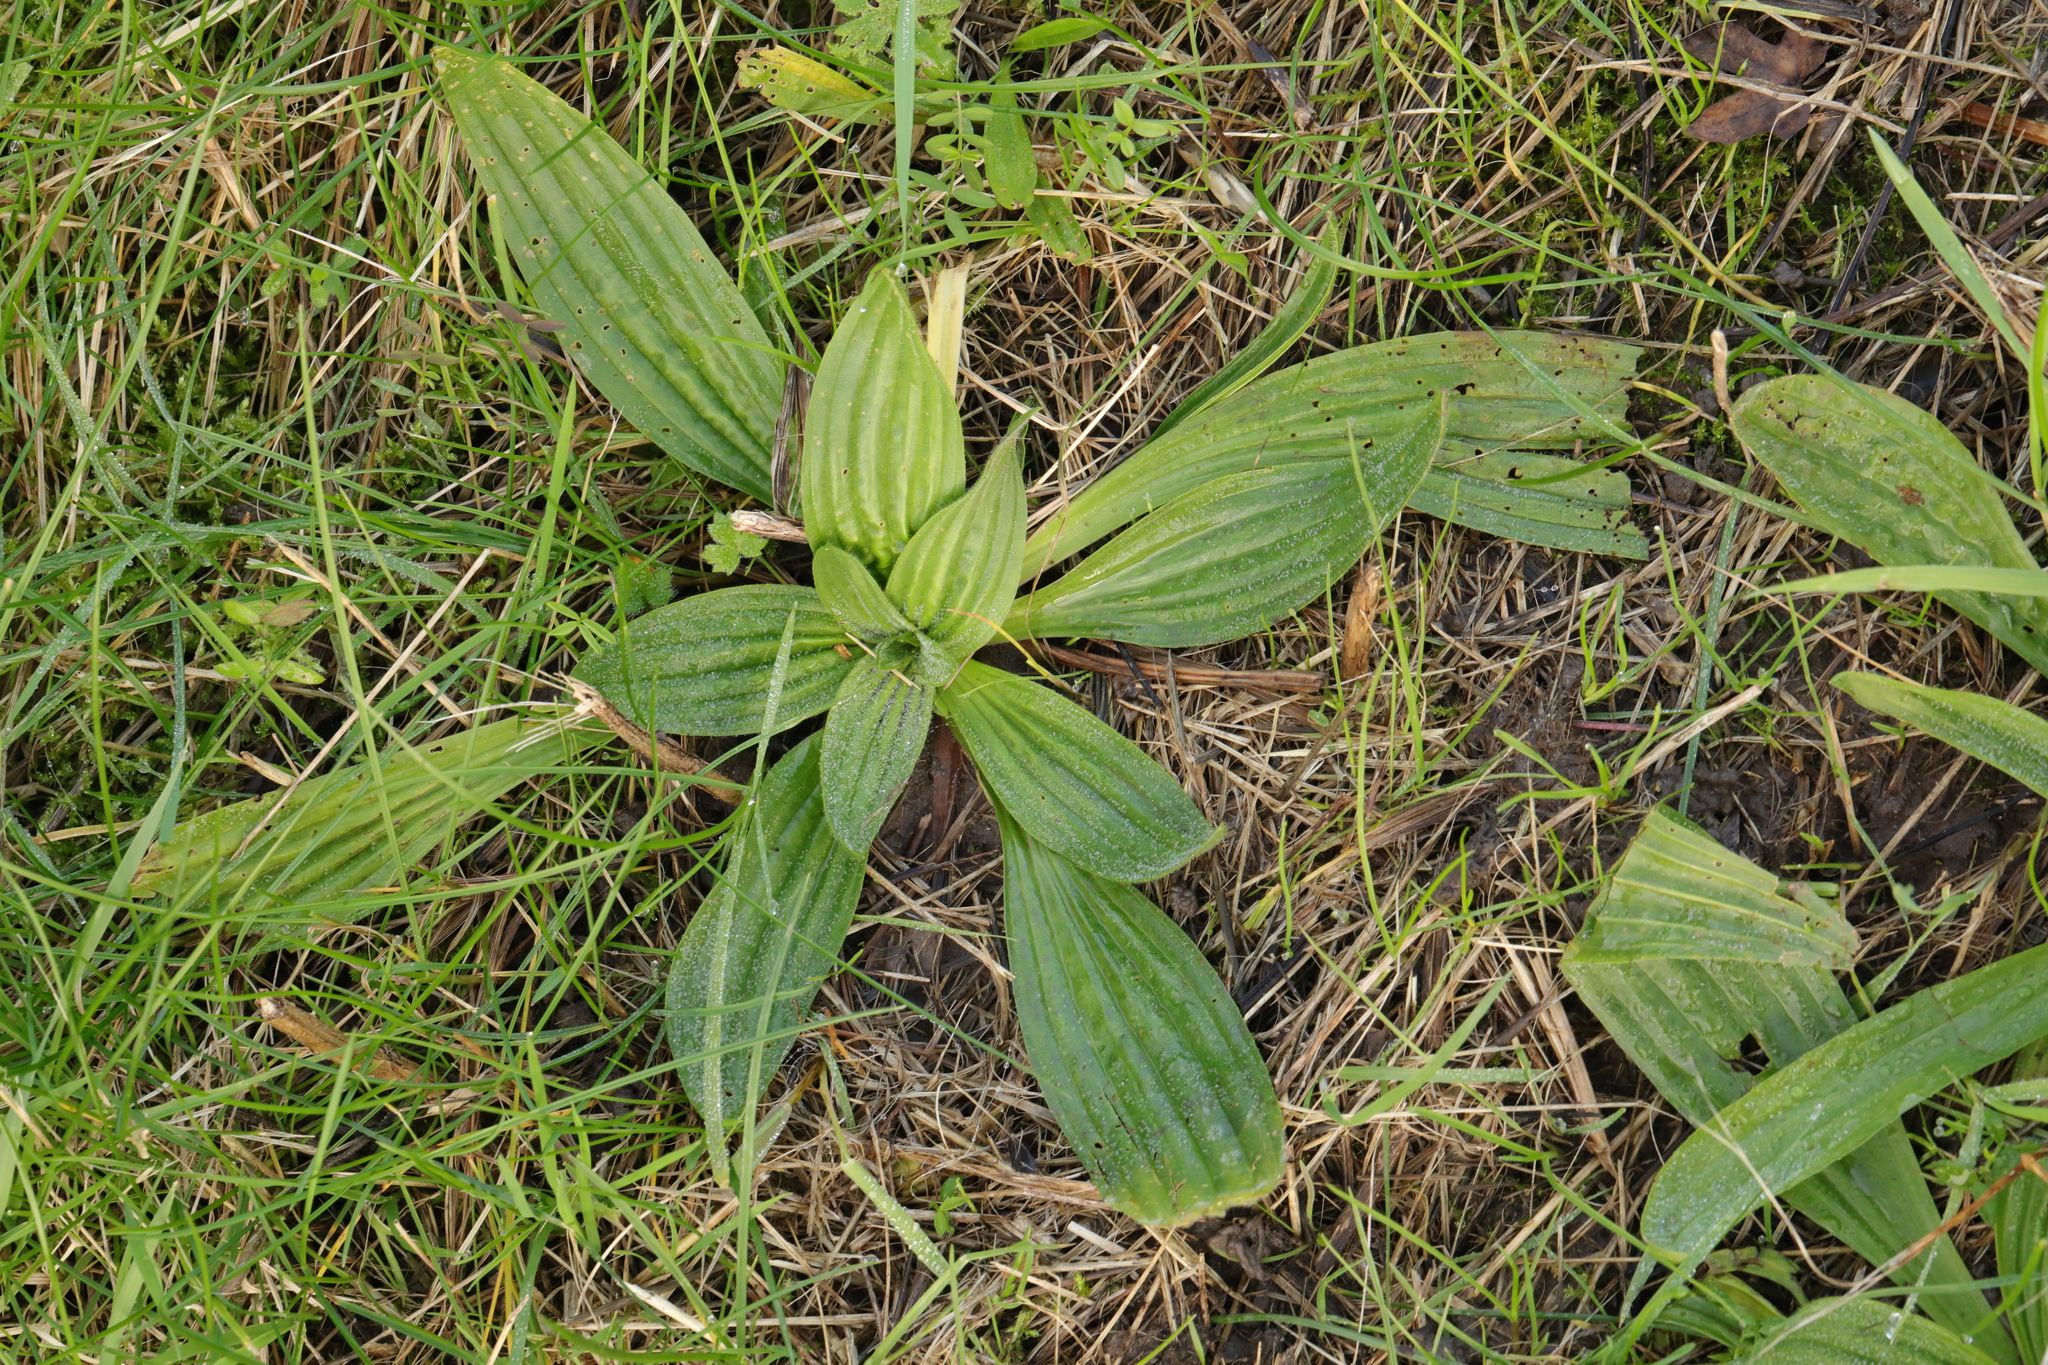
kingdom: Plantae
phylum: Tracheophyta
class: Magnoliopsida
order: Lamiales
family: Plantaginaceae
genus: Plantago
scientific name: Plantago lanceolata
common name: Ribwort plantain
